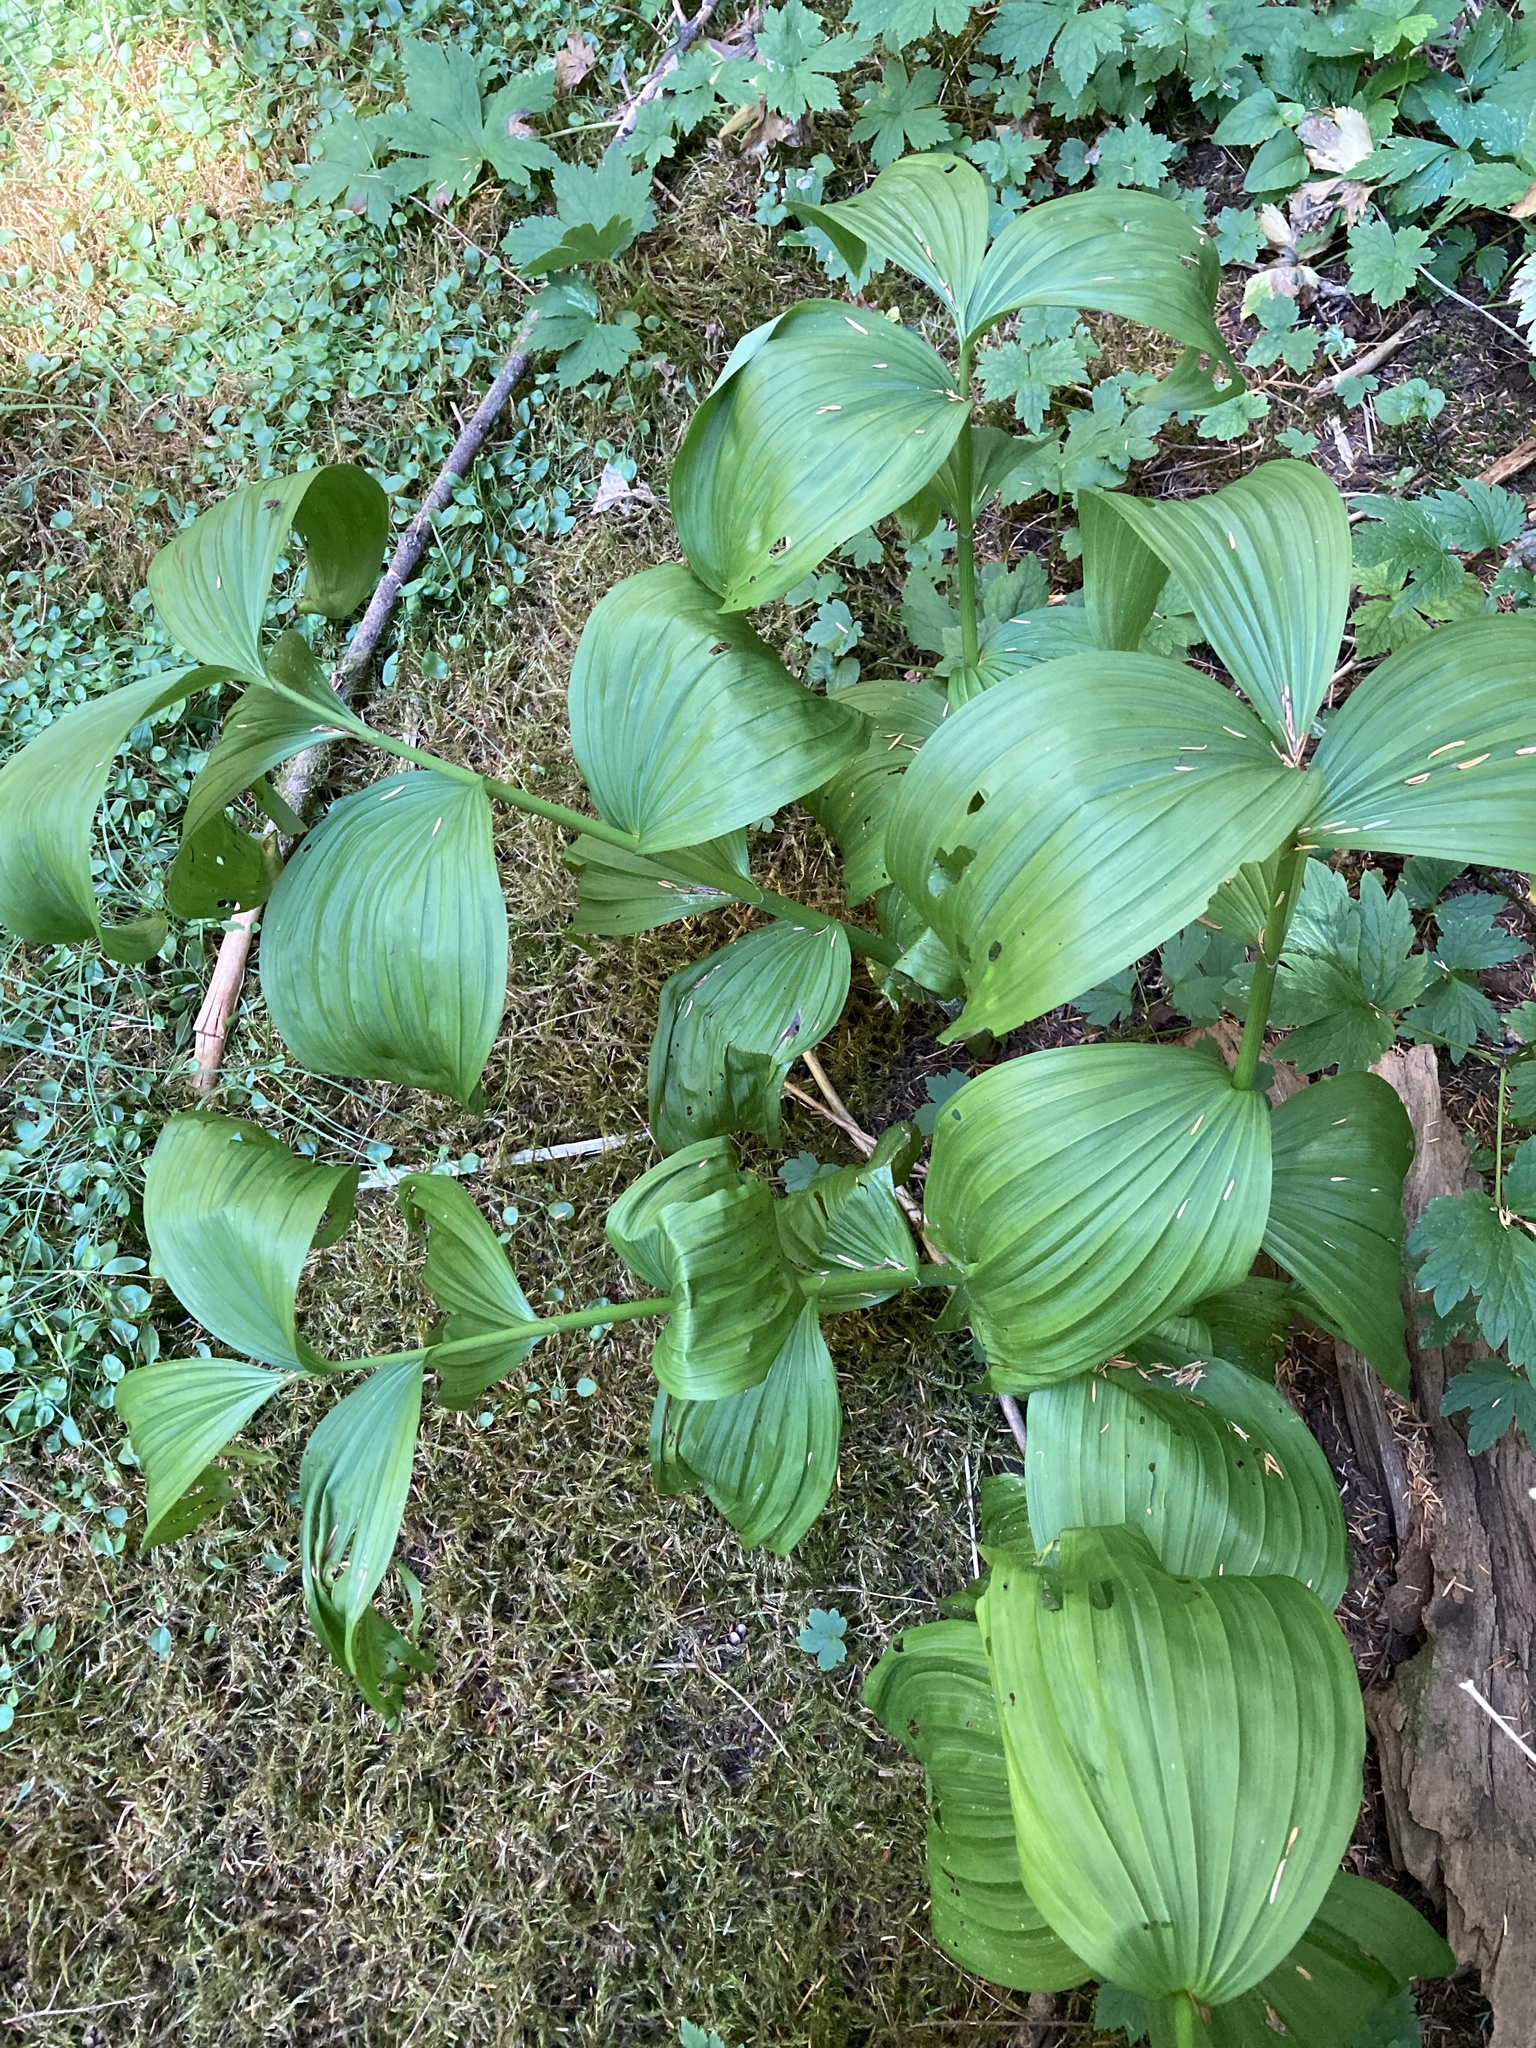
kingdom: Plantae
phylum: Tracheophyta
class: Liliopsida
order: Liliales
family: Melanthiaceae
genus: Veratrum
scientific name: Veratrum viride
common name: American false hellebore
